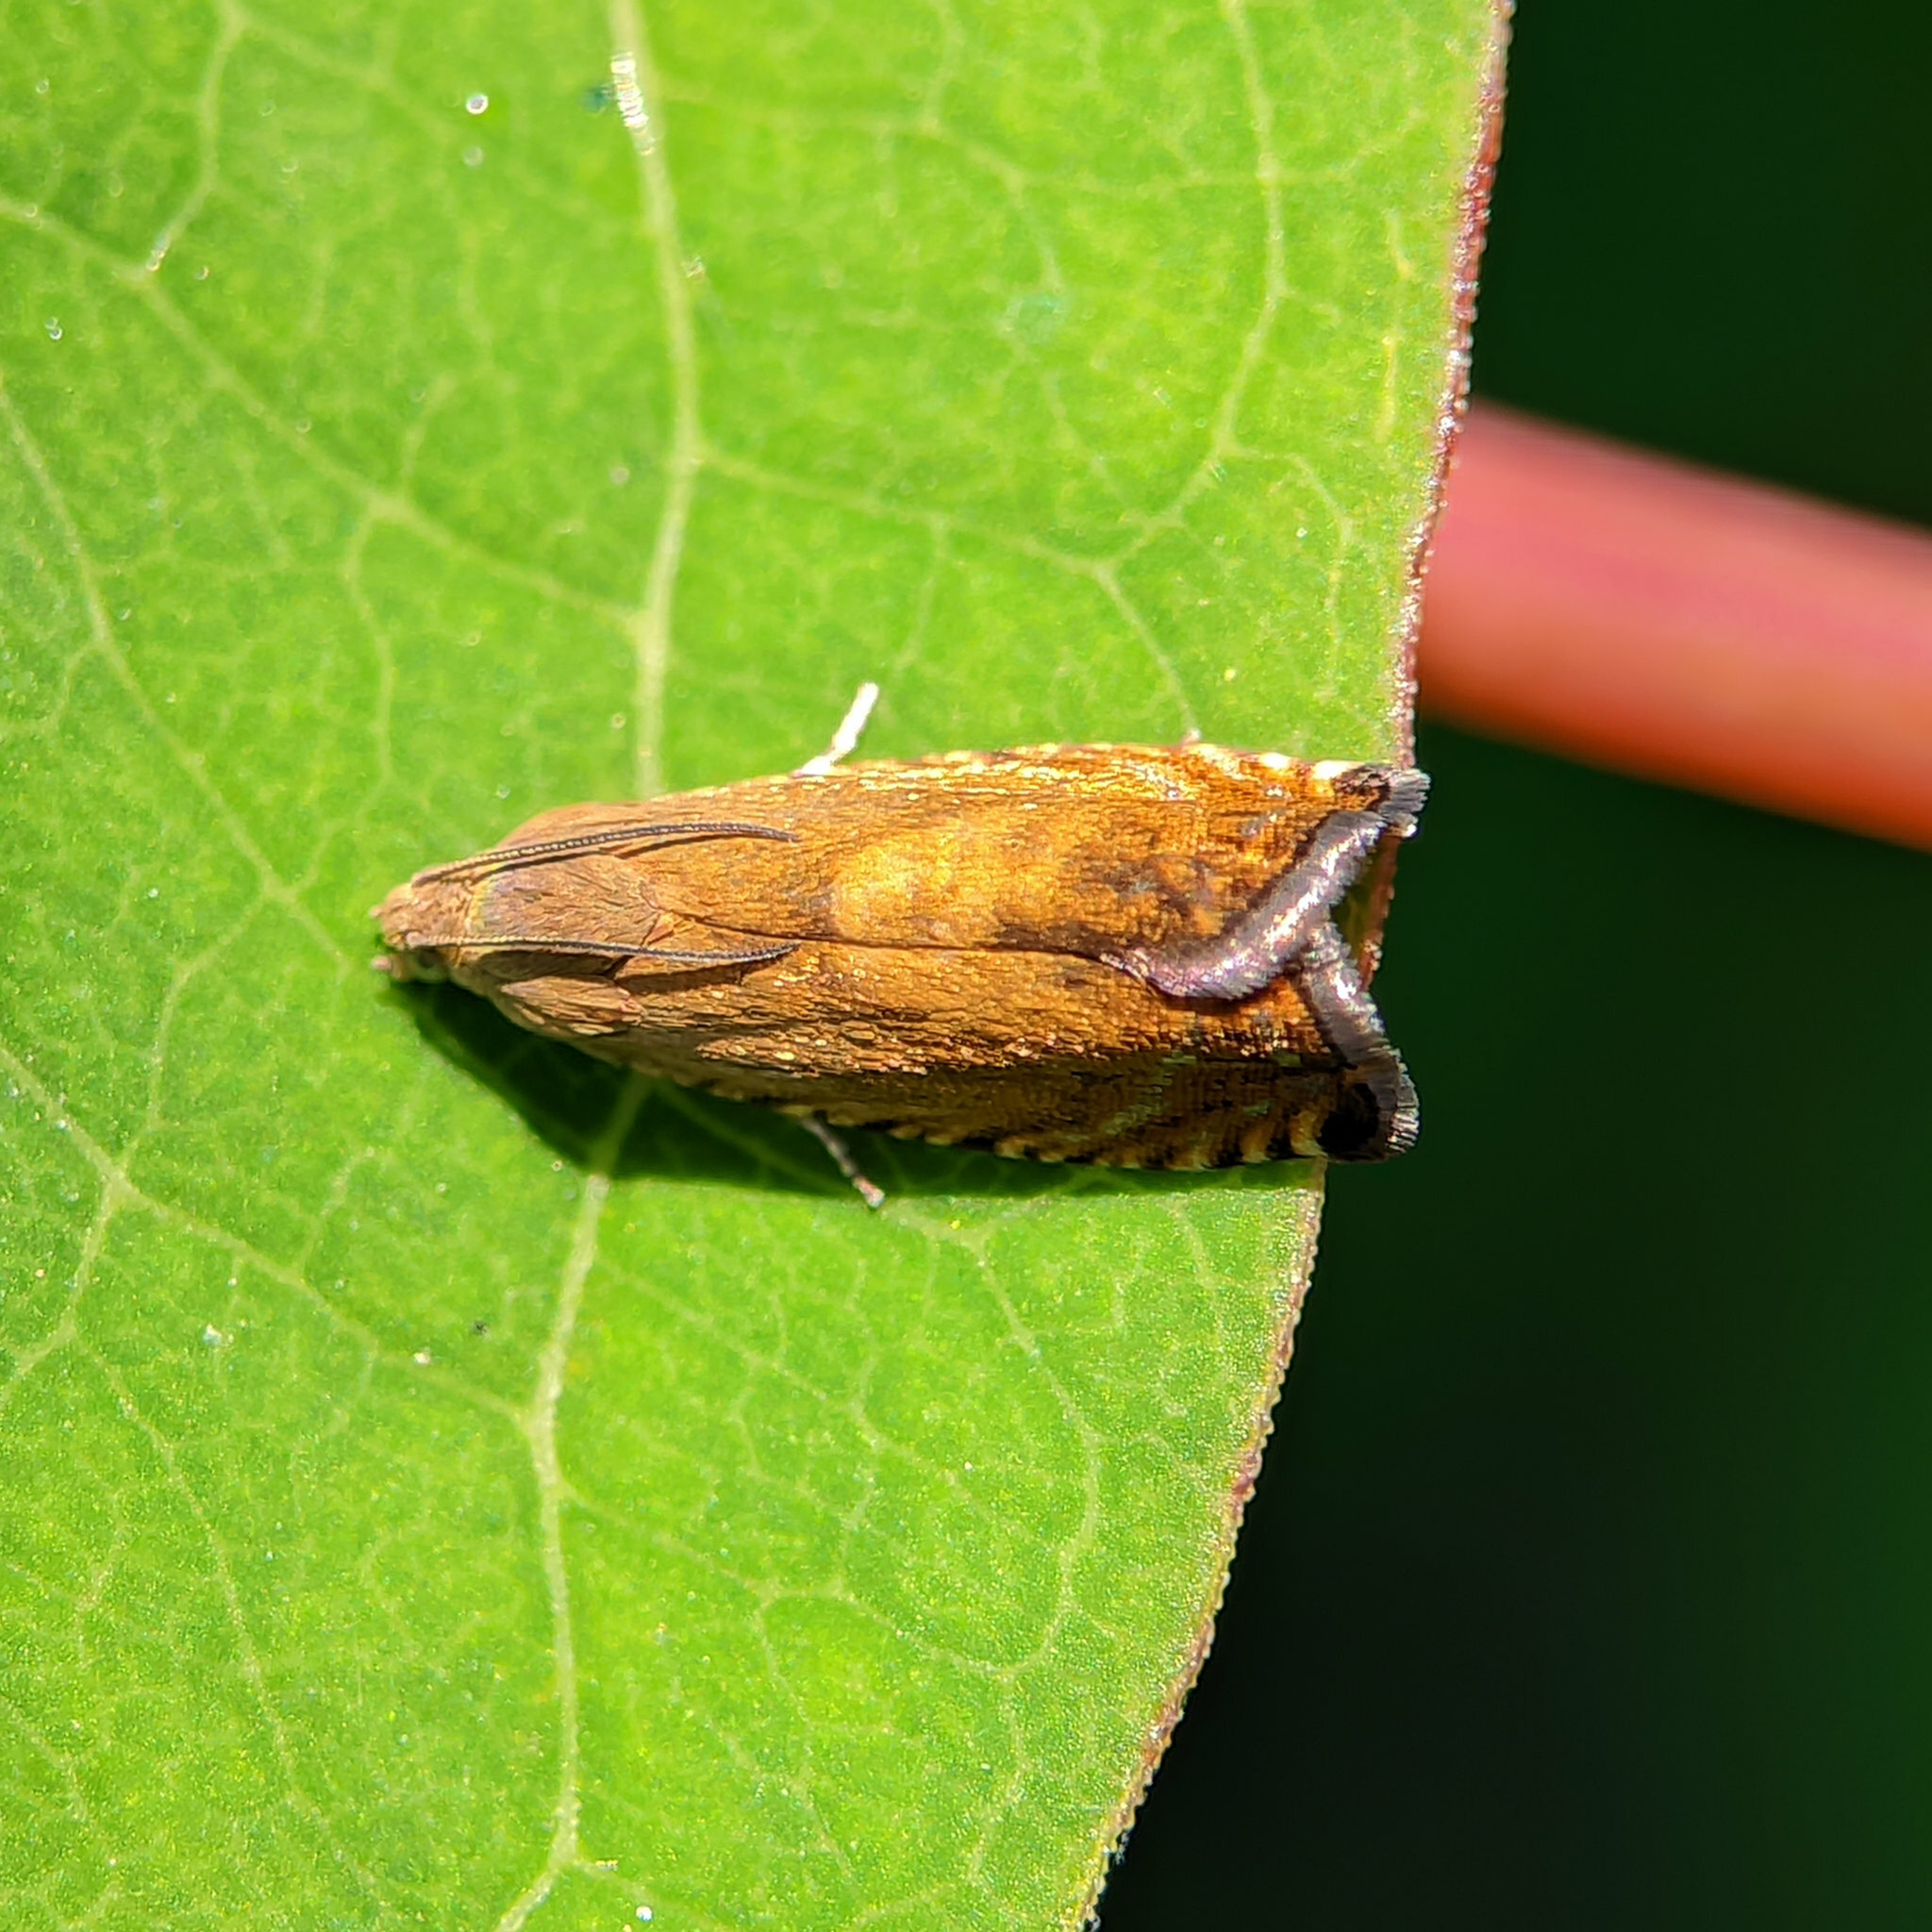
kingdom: Animalia
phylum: Arthropoda
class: Insecta
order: Lepidoptera
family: Tortricidae
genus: Pammene
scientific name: Pammene aurita
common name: Sycamore piercer
